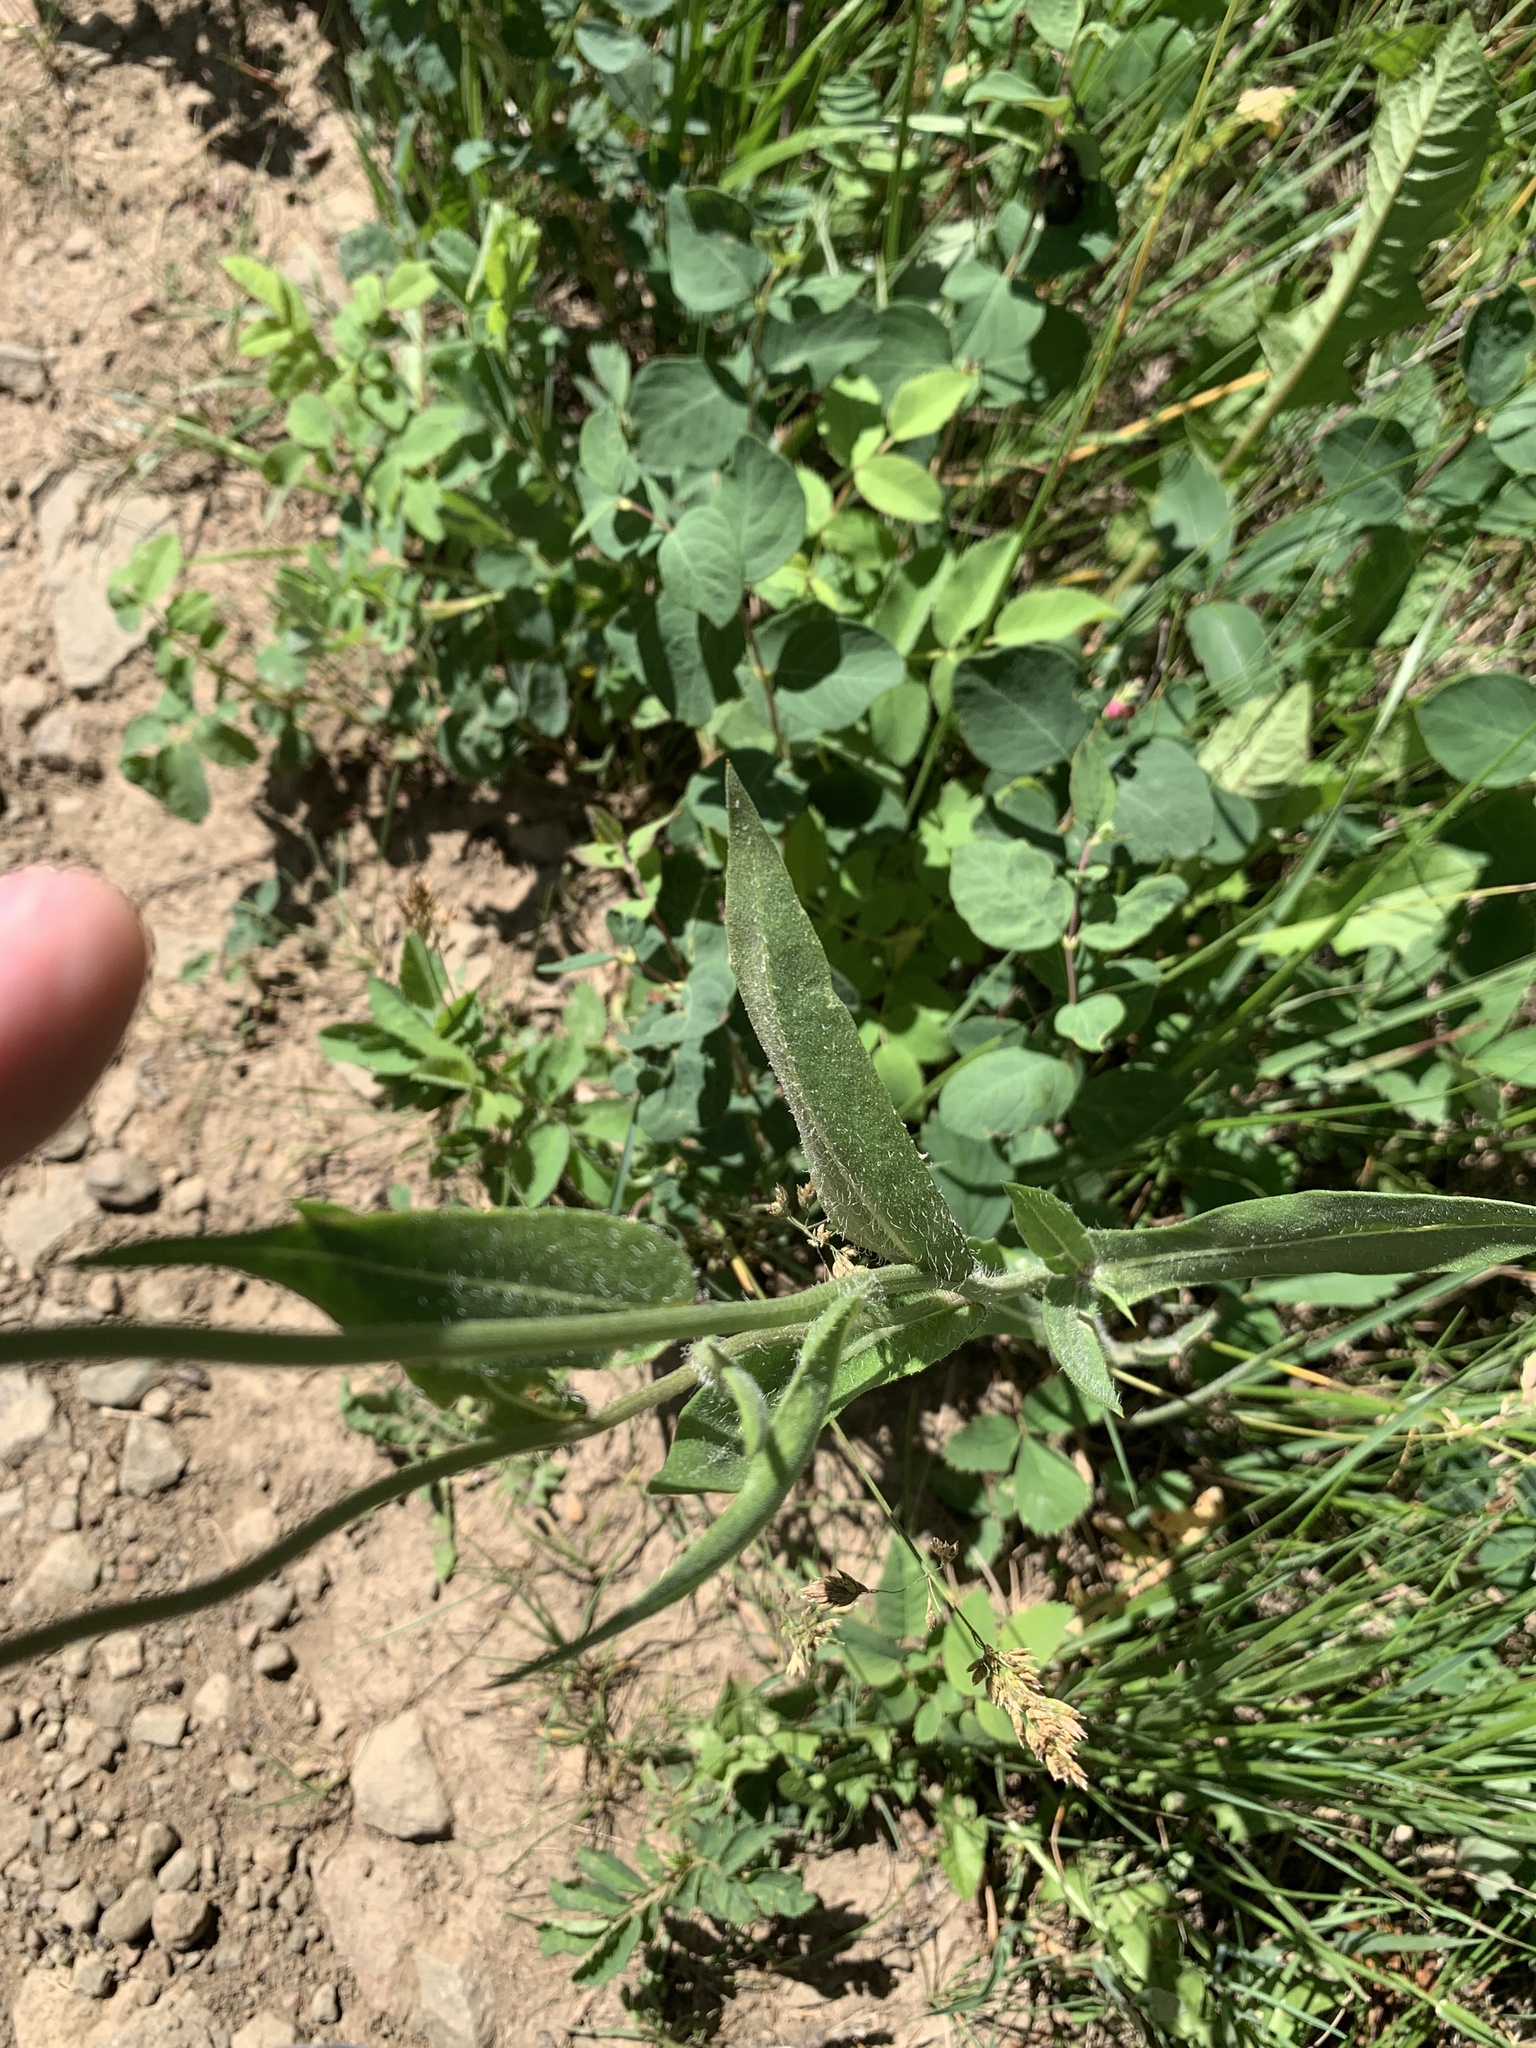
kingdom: Plantae
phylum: Tracheophyta
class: Magnoliopsida
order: Asterales
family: Asteraceae
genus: Gaillardia
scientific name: Gaillardia aristata
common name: Blanket-flower
